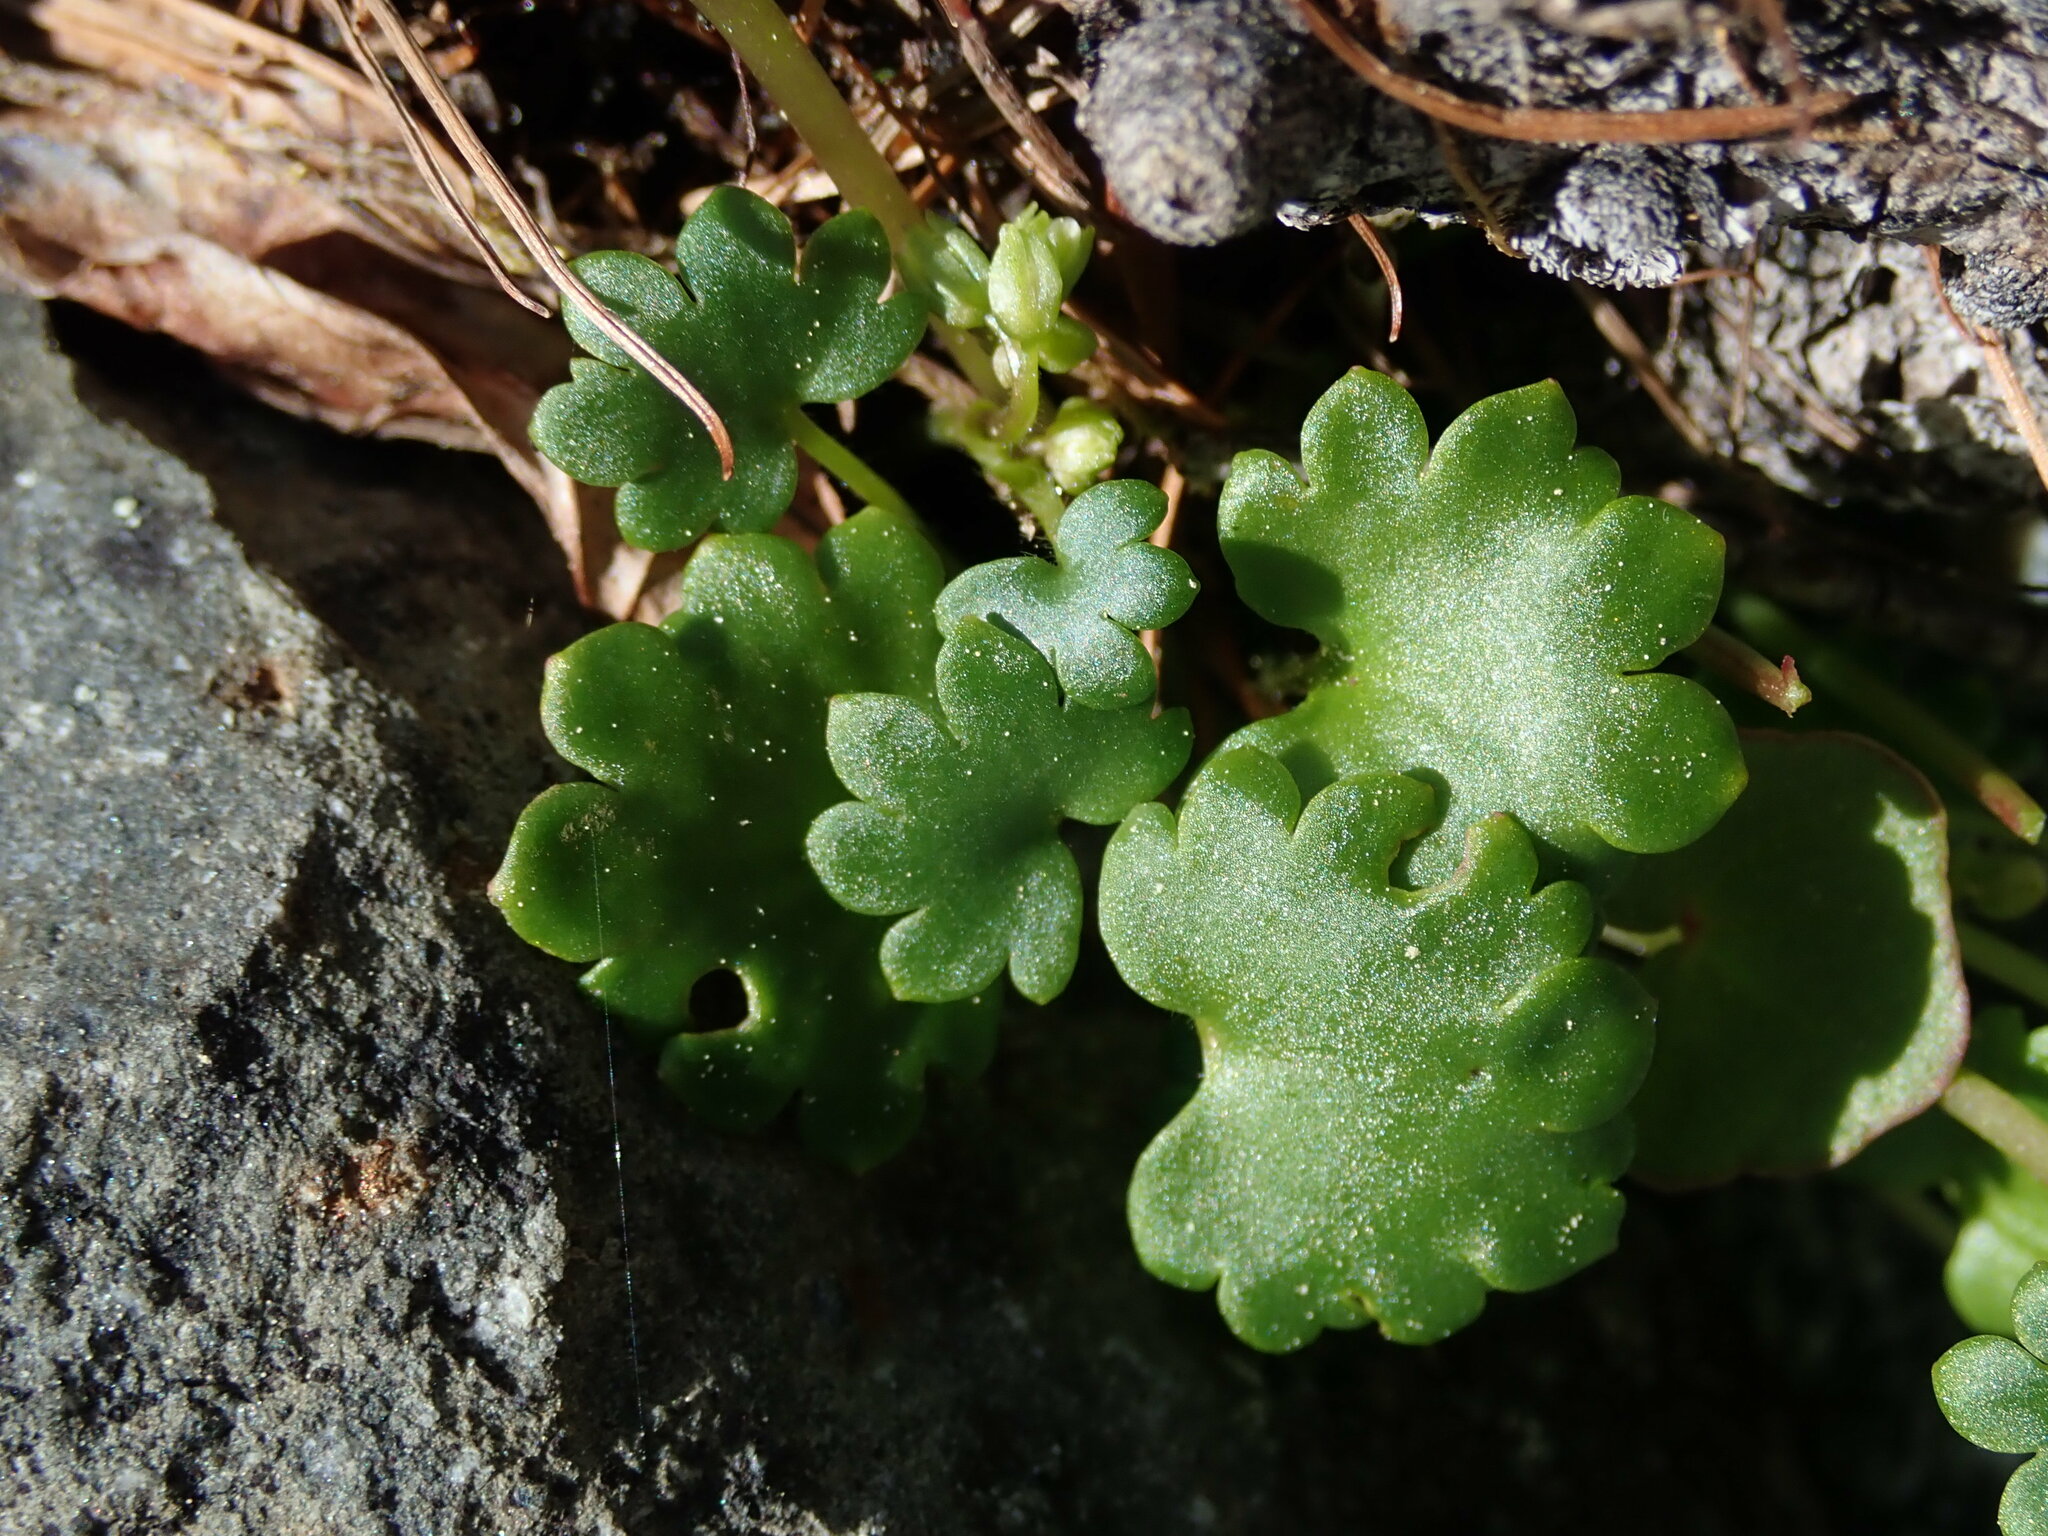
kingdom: Plantae
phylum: Tracheophyta
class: Magnoliopsida
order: Boraginales
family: Hydrophyllaceae
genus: Romanzoffia
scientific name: Romanzoffia sitchensis
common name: Sitka mistmaid
